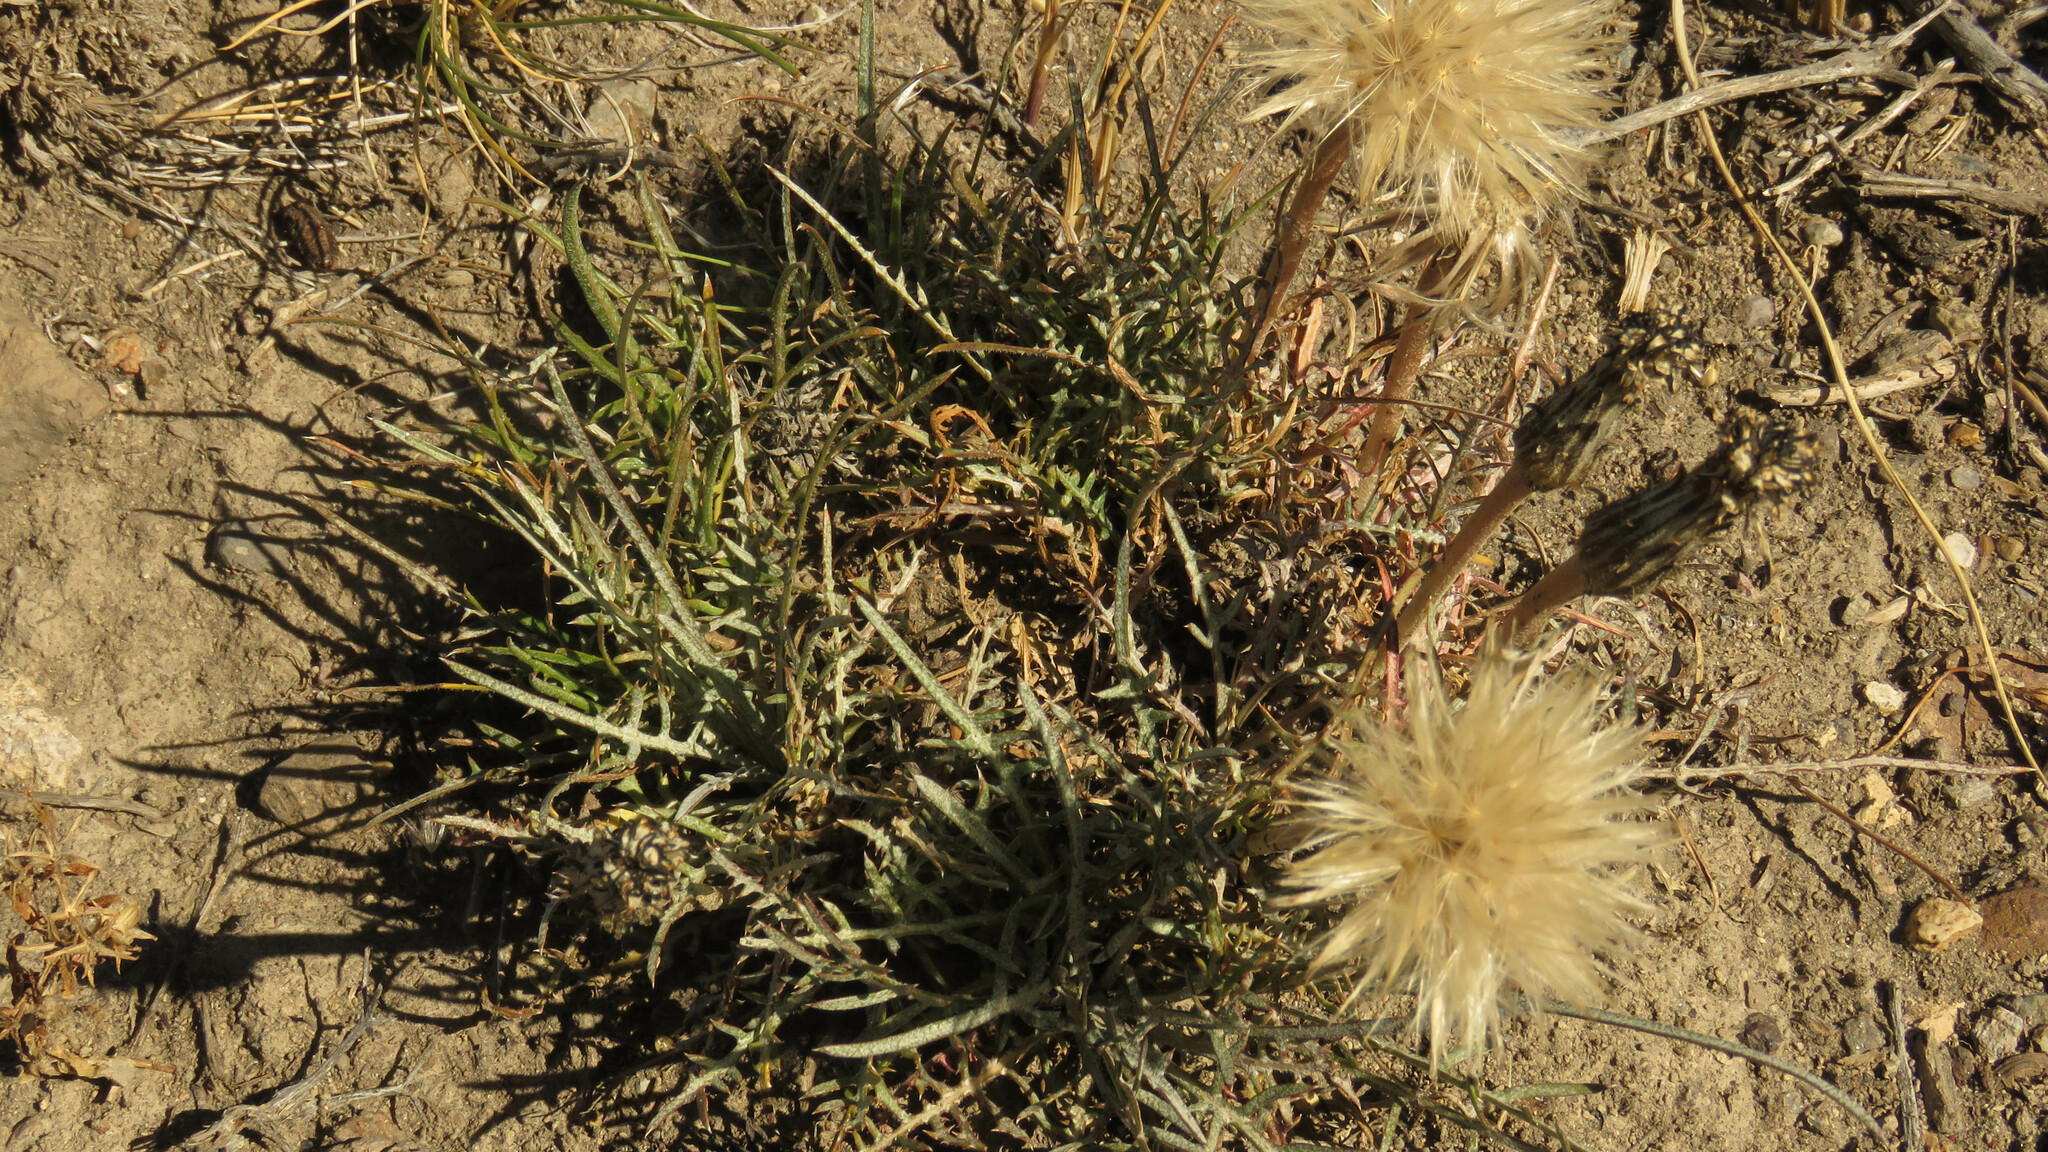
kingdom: Plantae
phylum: Tracheophyta
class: Magnoliopsida
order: Asterales
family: Asteraceae
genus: Hypochaeris
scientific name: Hypochaeris incana
